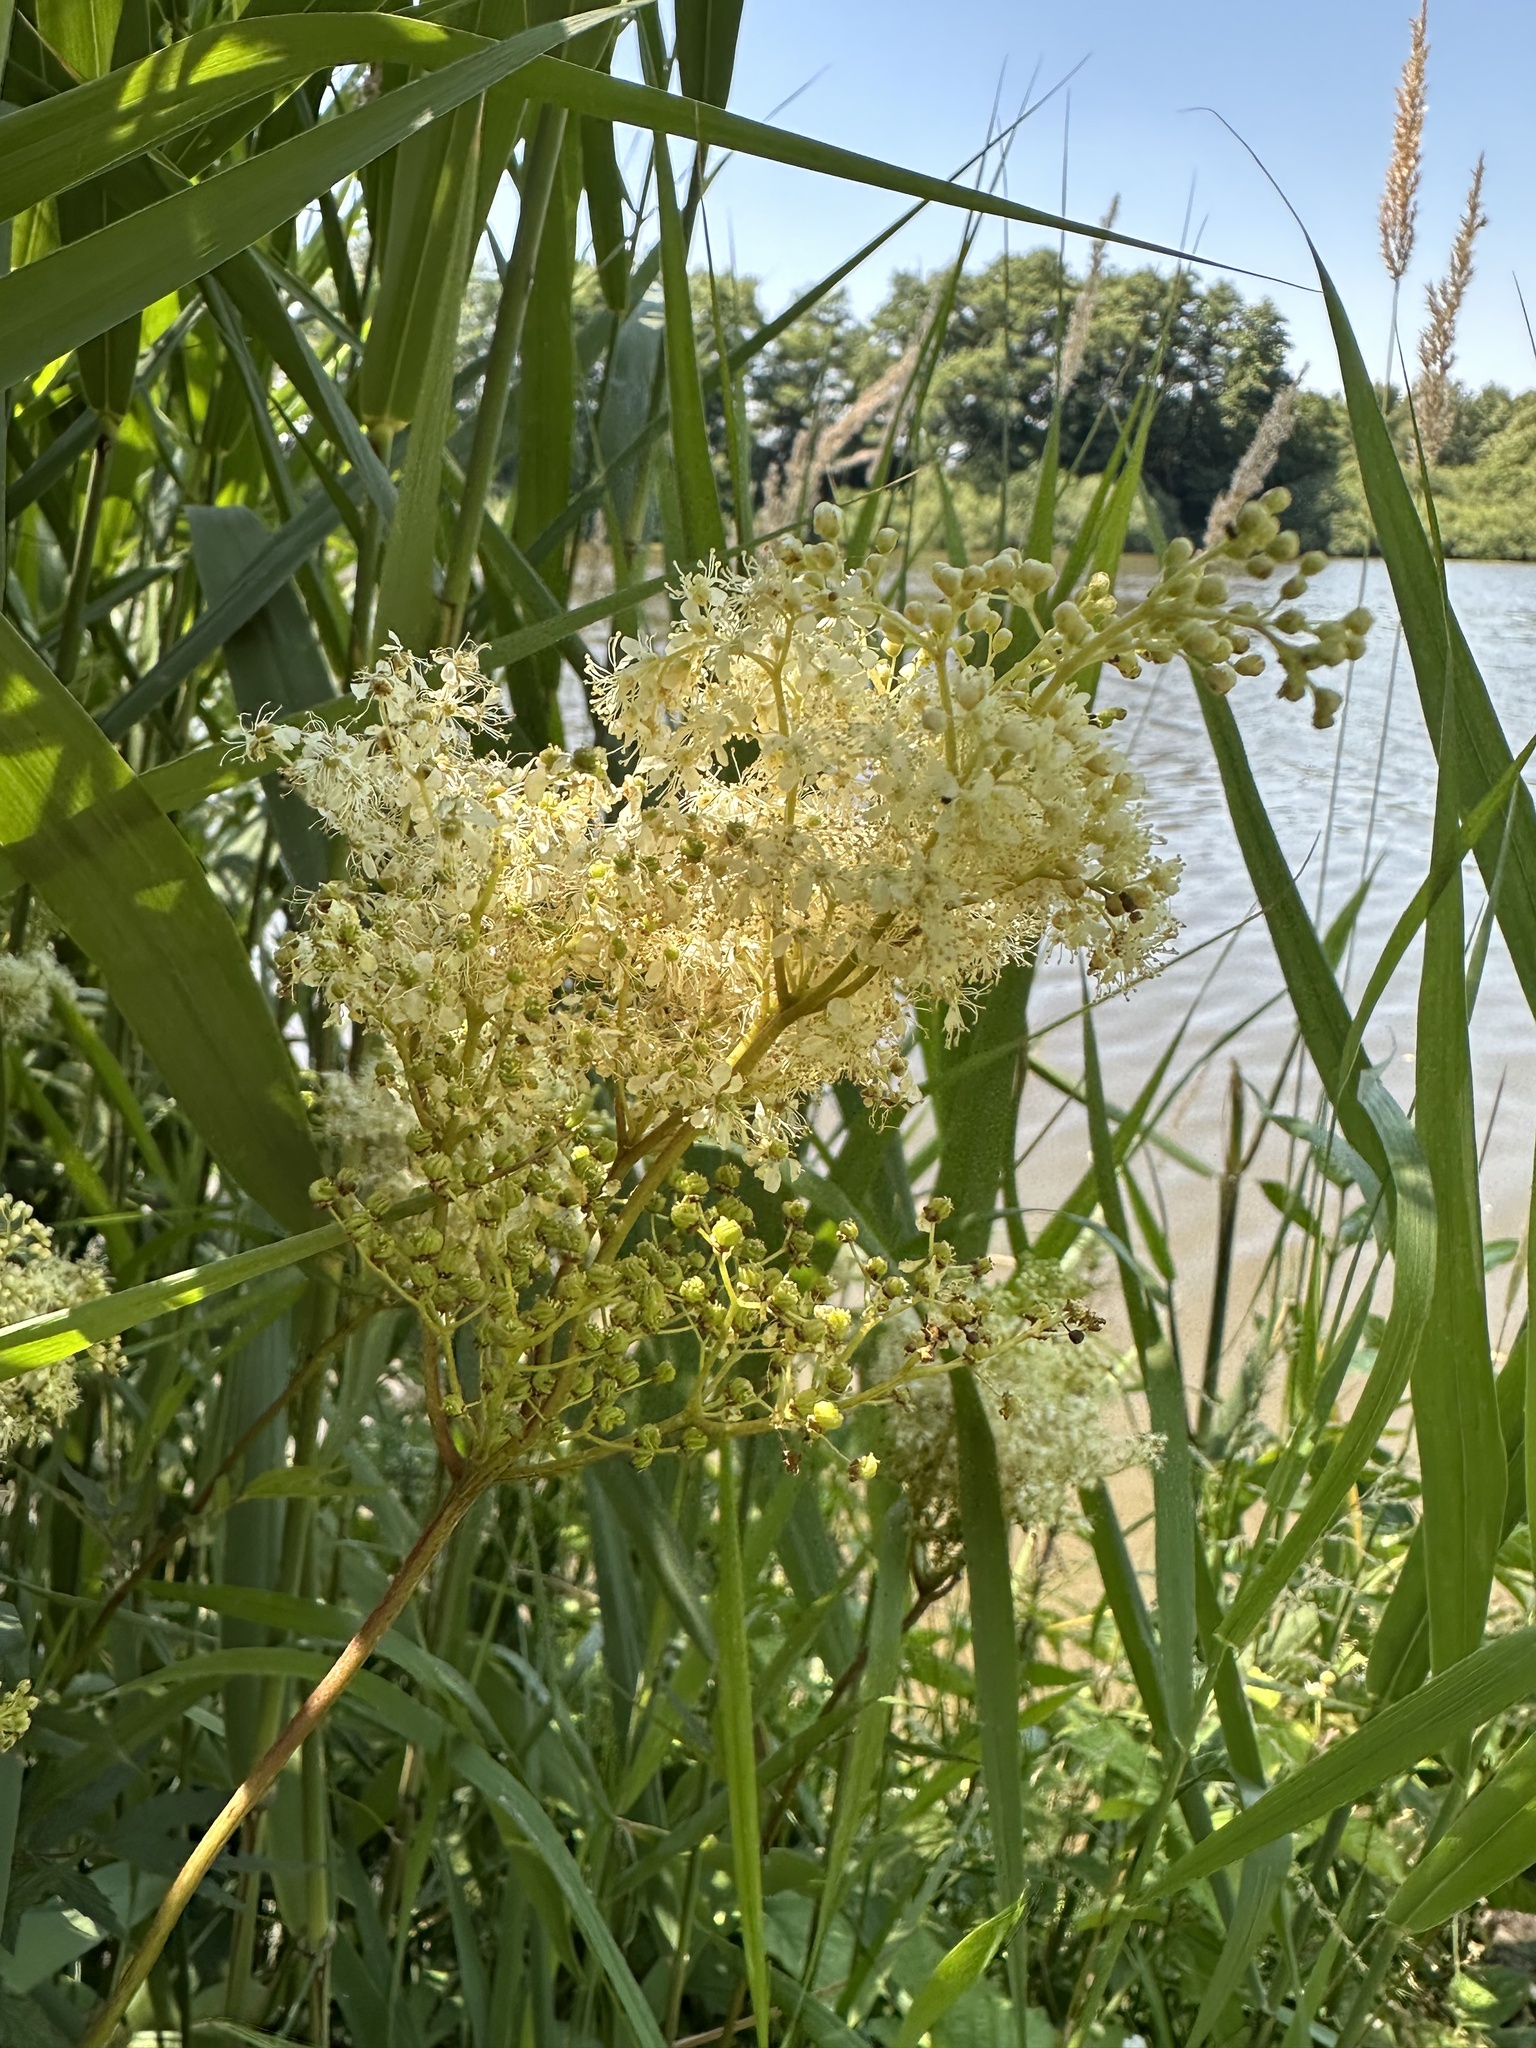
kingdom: Plantae
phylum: Tracheophyta
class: Magnoliopsida
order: Rosales
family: Rosaceae
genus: Filipendula
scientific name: Filipendula ulmaria
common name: Meadowsweet
